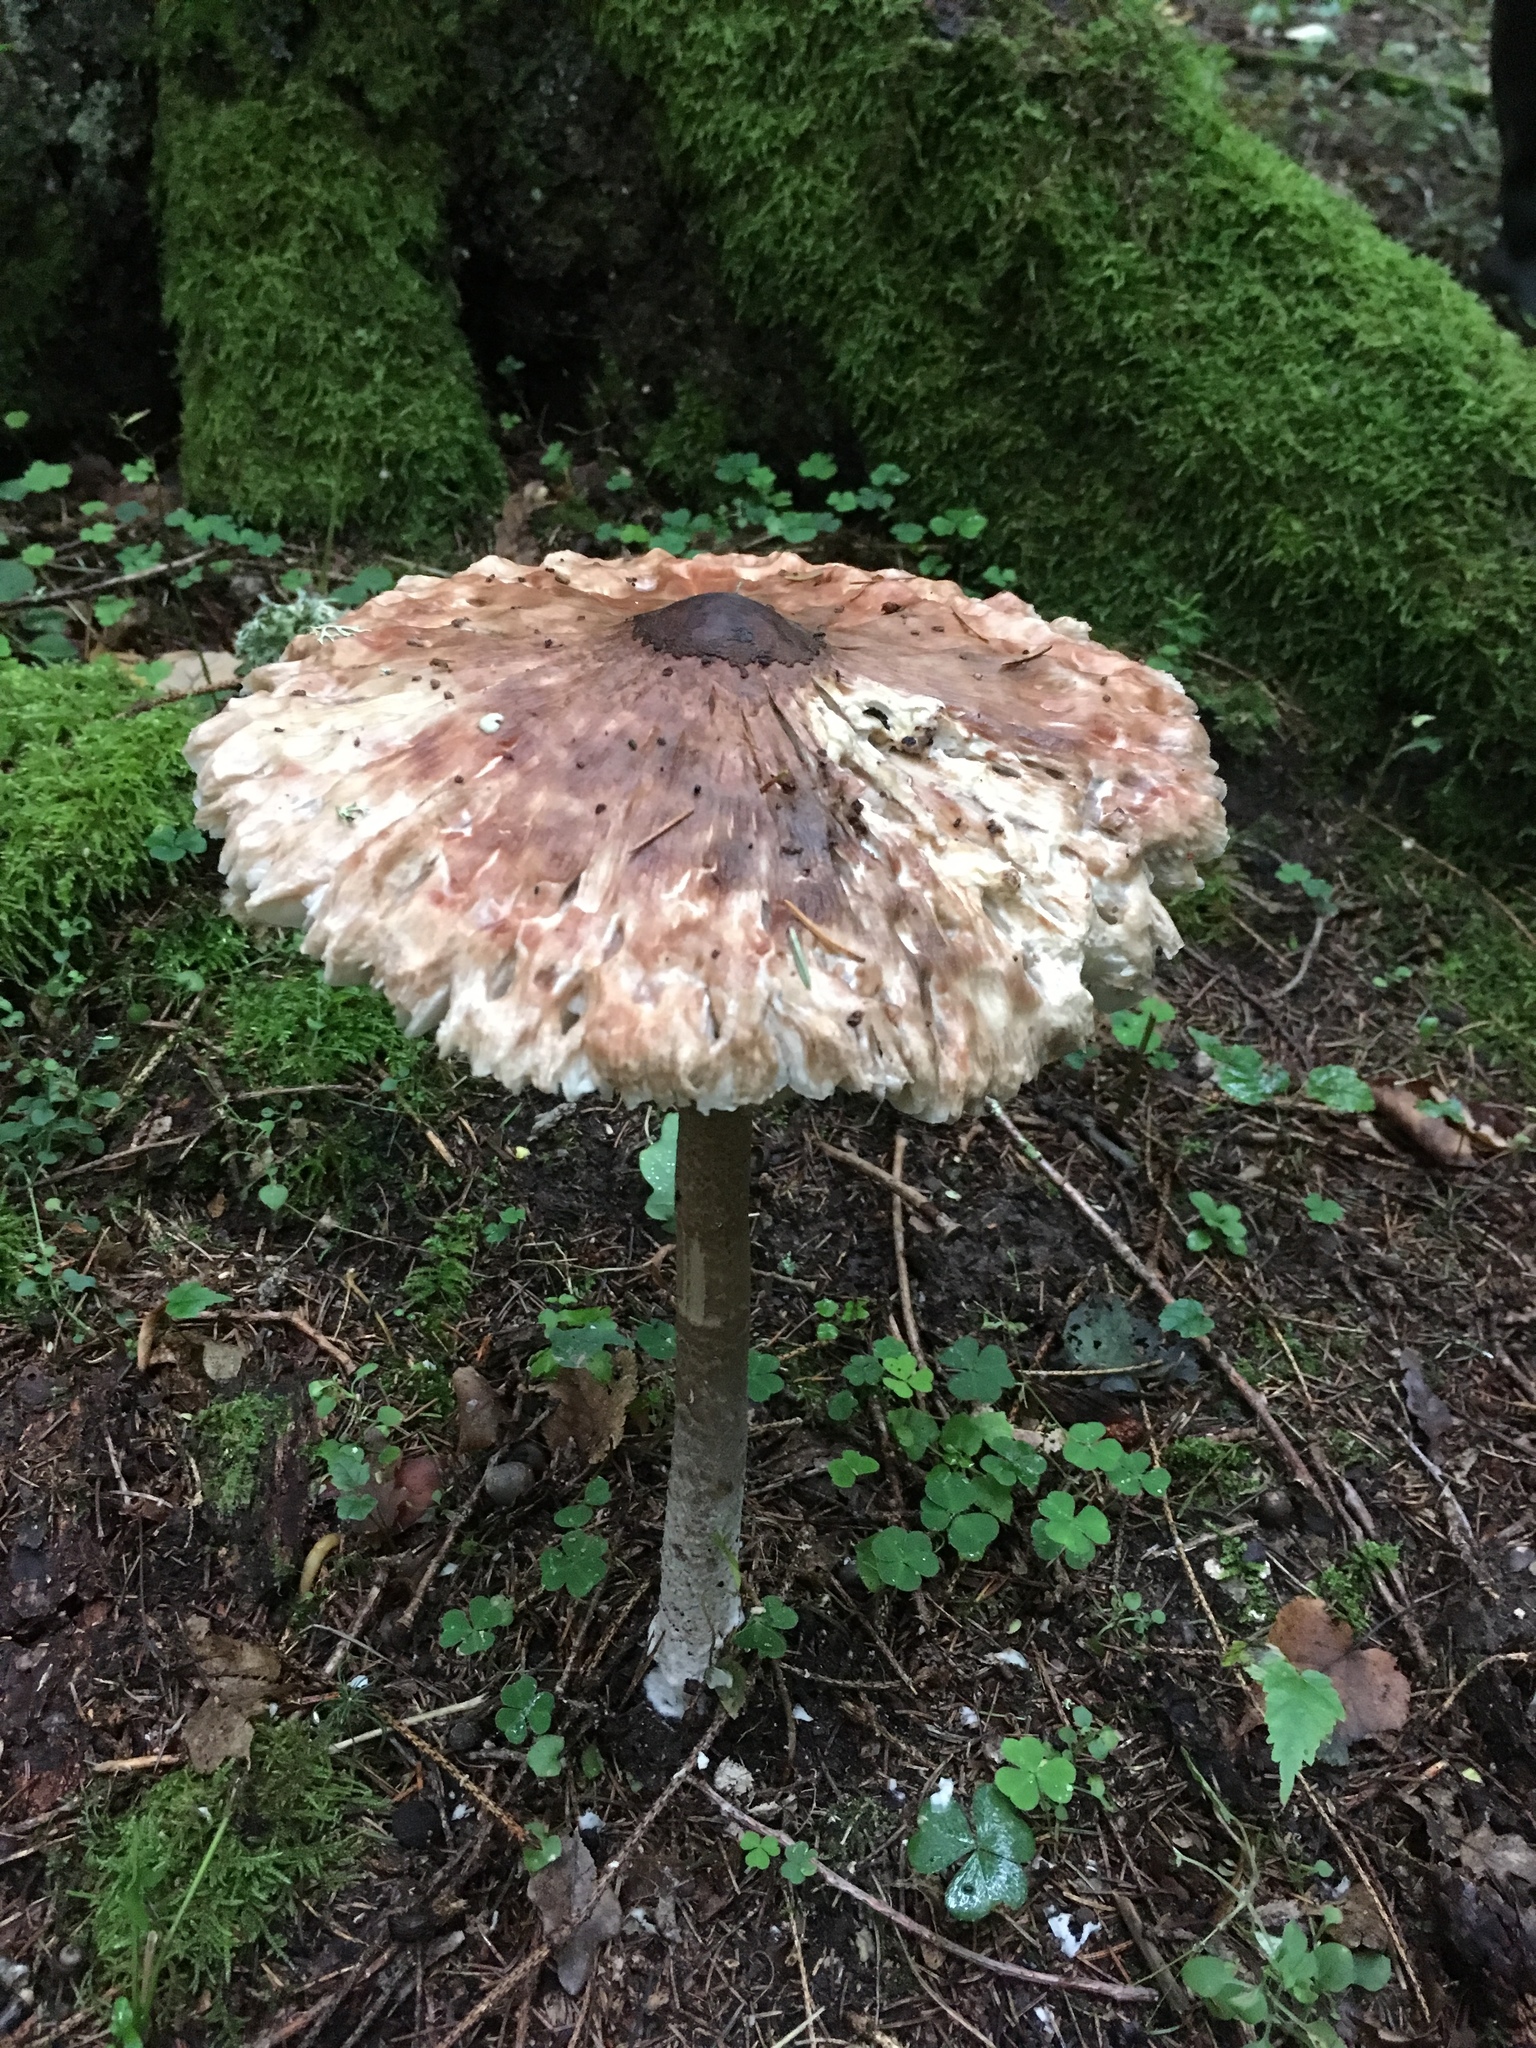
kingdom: Fungi
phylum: Basidiomycota
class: Agaricomycetes
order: Agaricales
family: Agaricaceae
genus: Macrolepiota
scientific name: Macrolepiota procera
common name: Parasol
